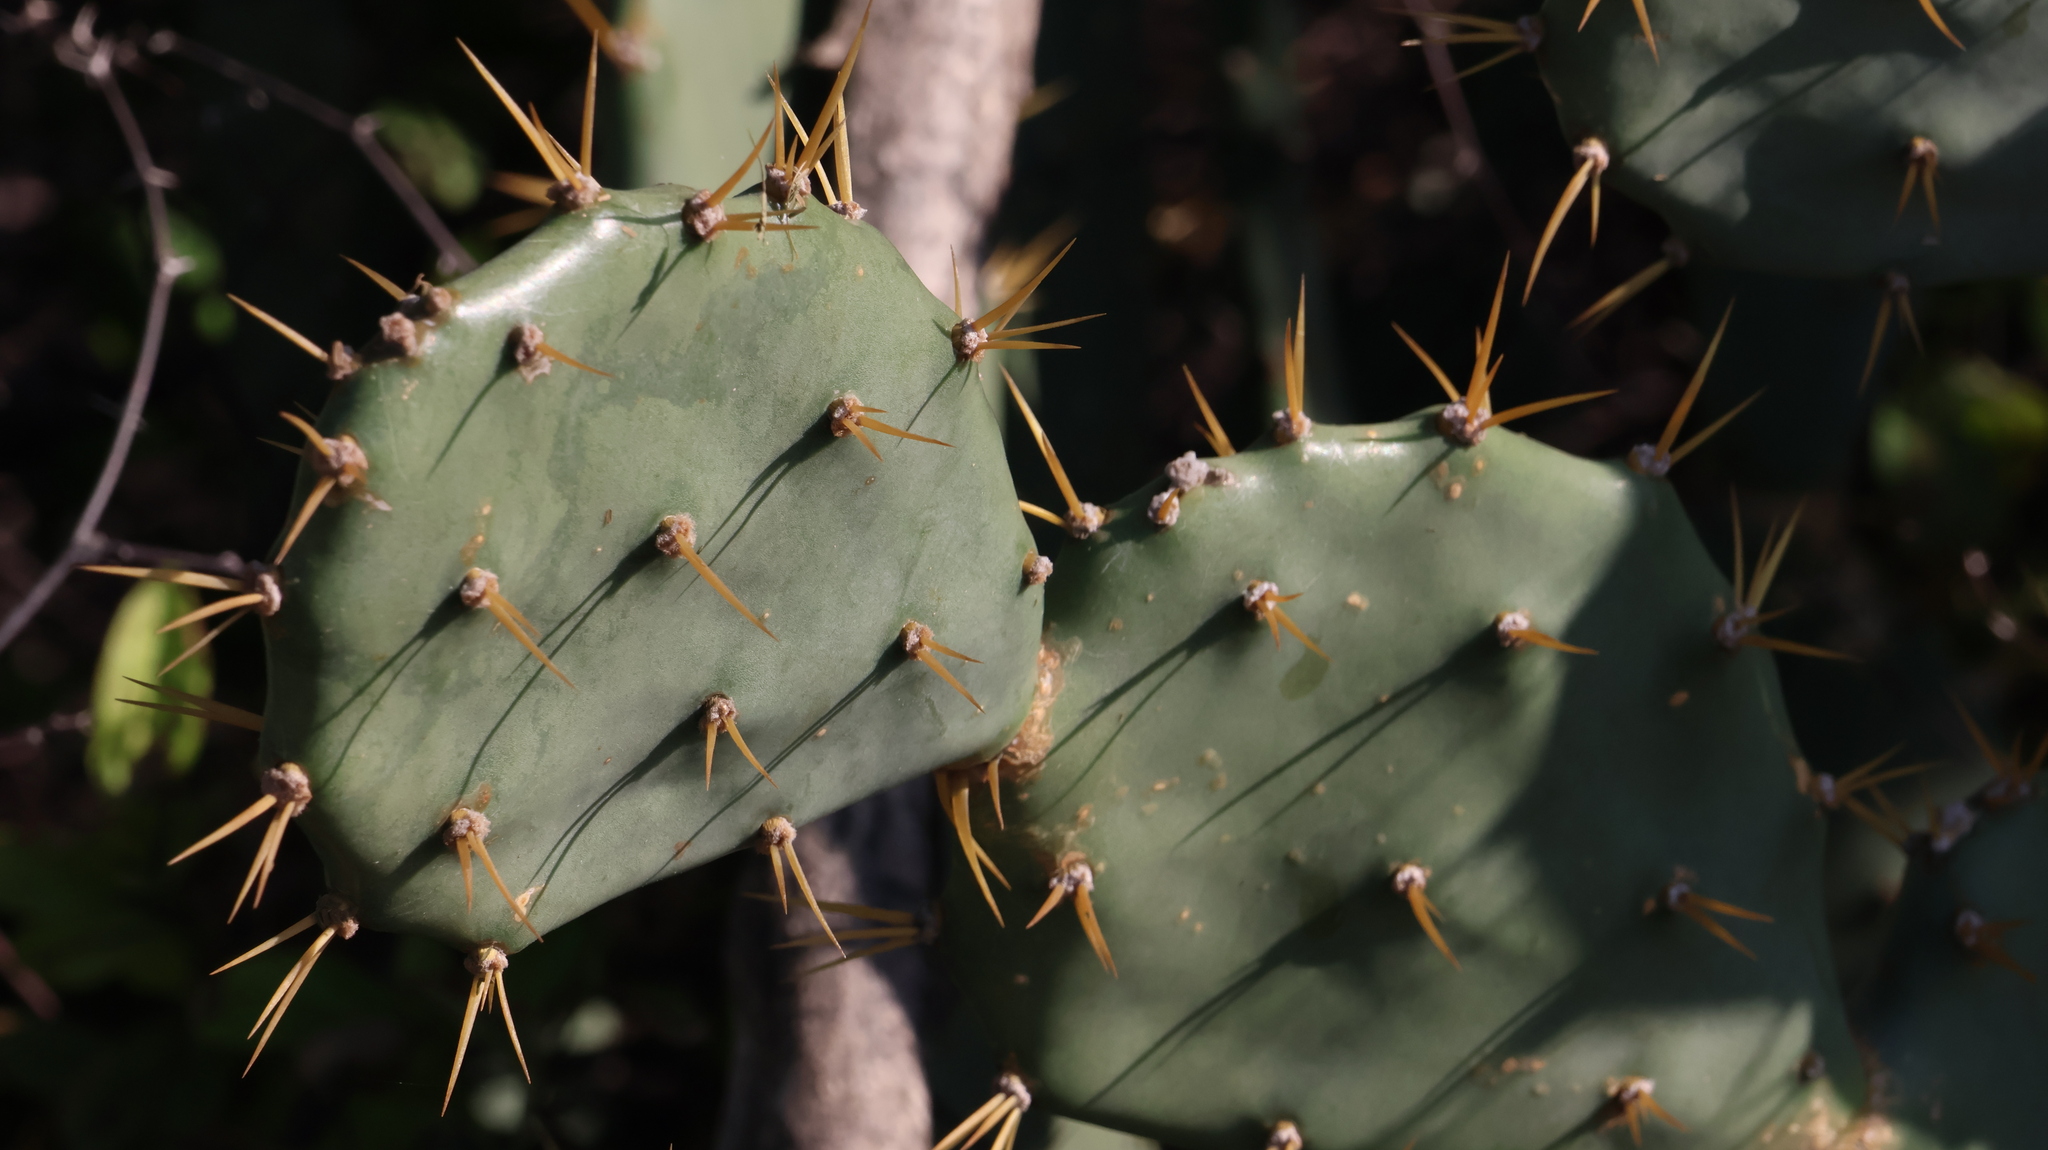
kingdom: Plantae
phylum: Tracheophyta
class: Magnoliopsida
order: Caryophyllales
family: Cactaceae
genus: Opuntia
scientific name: Opuntia stricta
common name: Erect pricklypear
